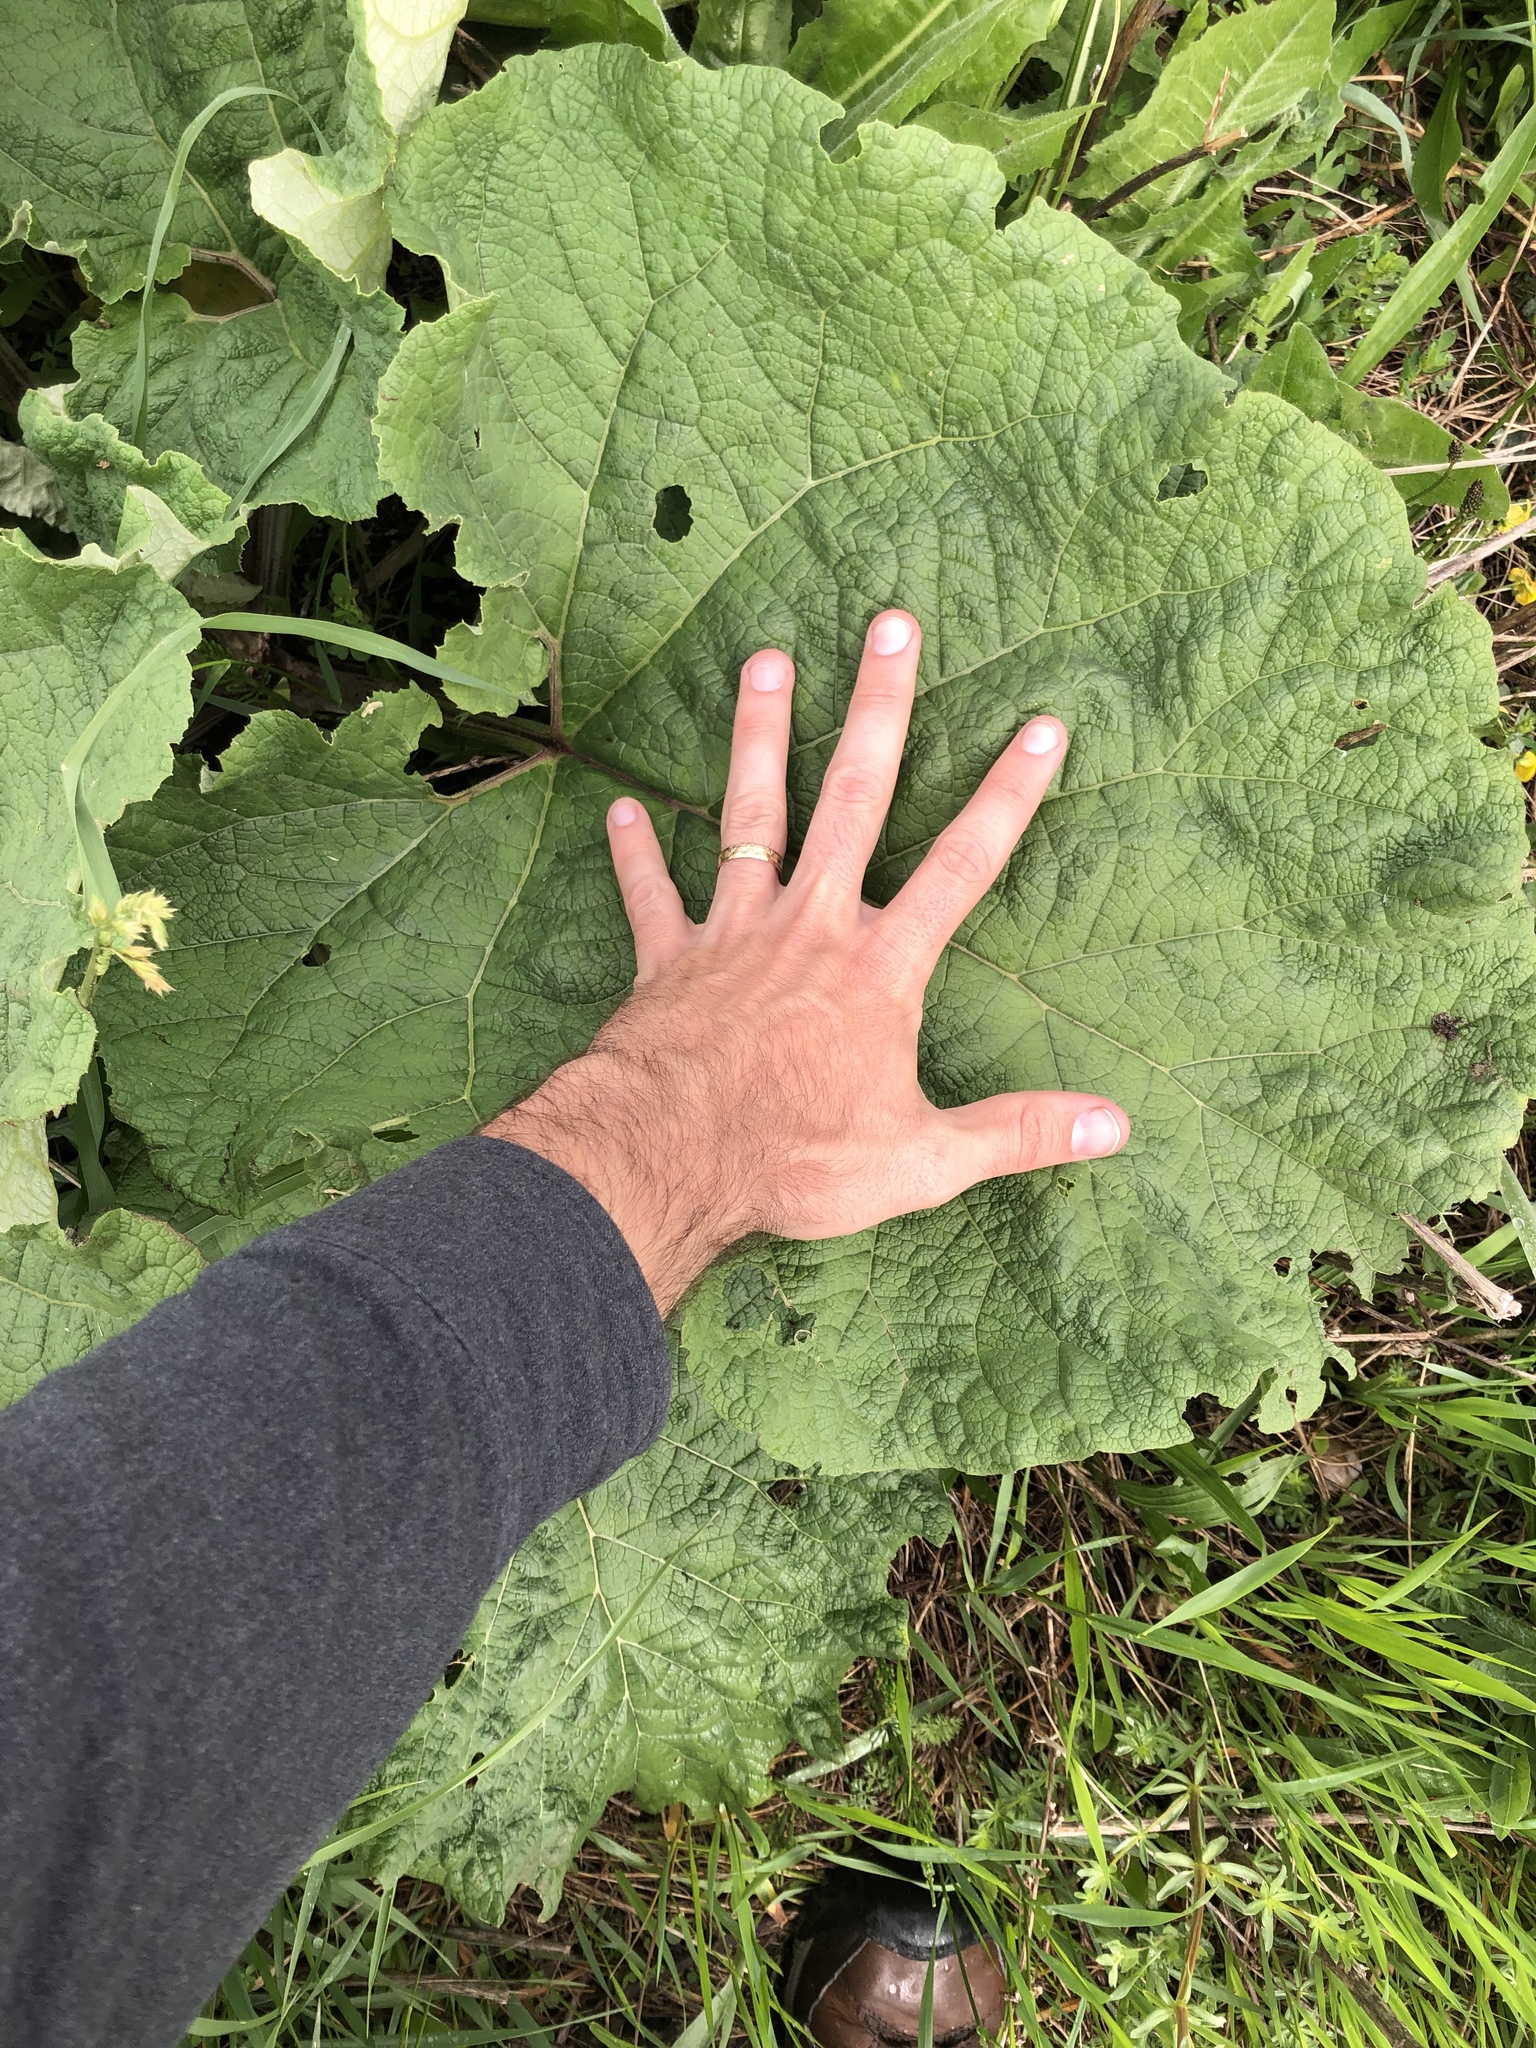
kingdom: Plantae
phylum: Tracheophyta
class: Magnoliopsida
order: Asterales
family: Asteraceae
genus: Arctium
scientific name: Arctium lappa
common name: Greater burdock
